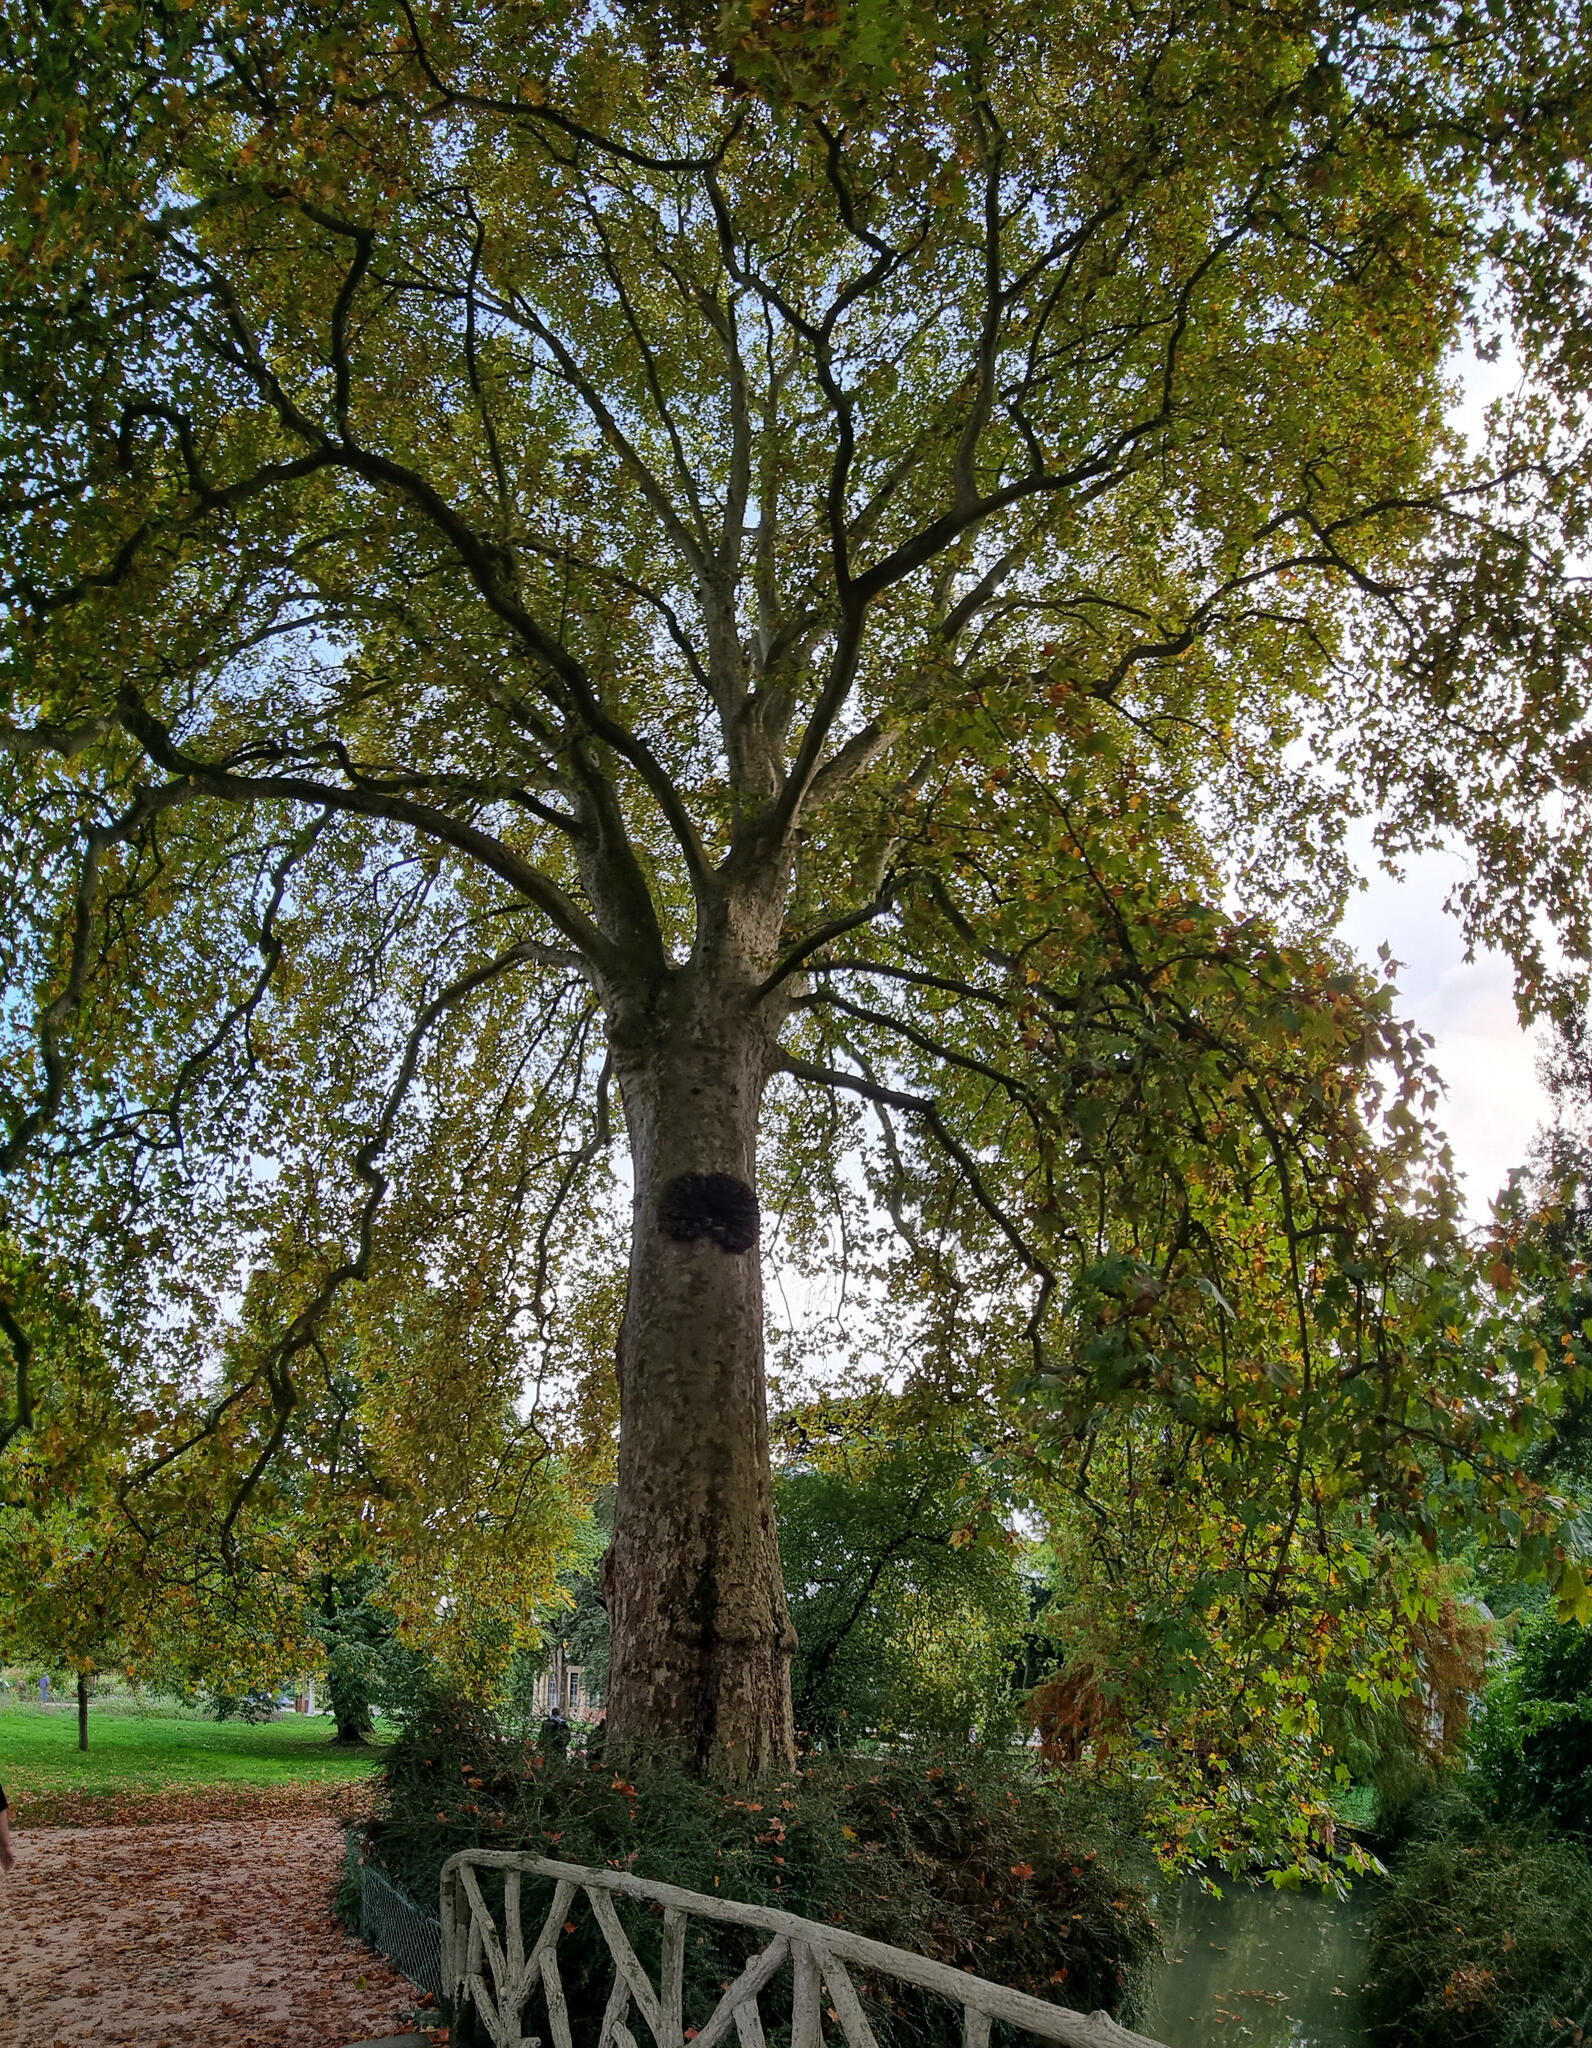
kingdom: Plantae
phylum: Tracheophyta
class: Magnoliopsida
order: Proteales
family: Platanaceae
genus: Platanus
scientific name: Platanus hispanica
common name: London plane
